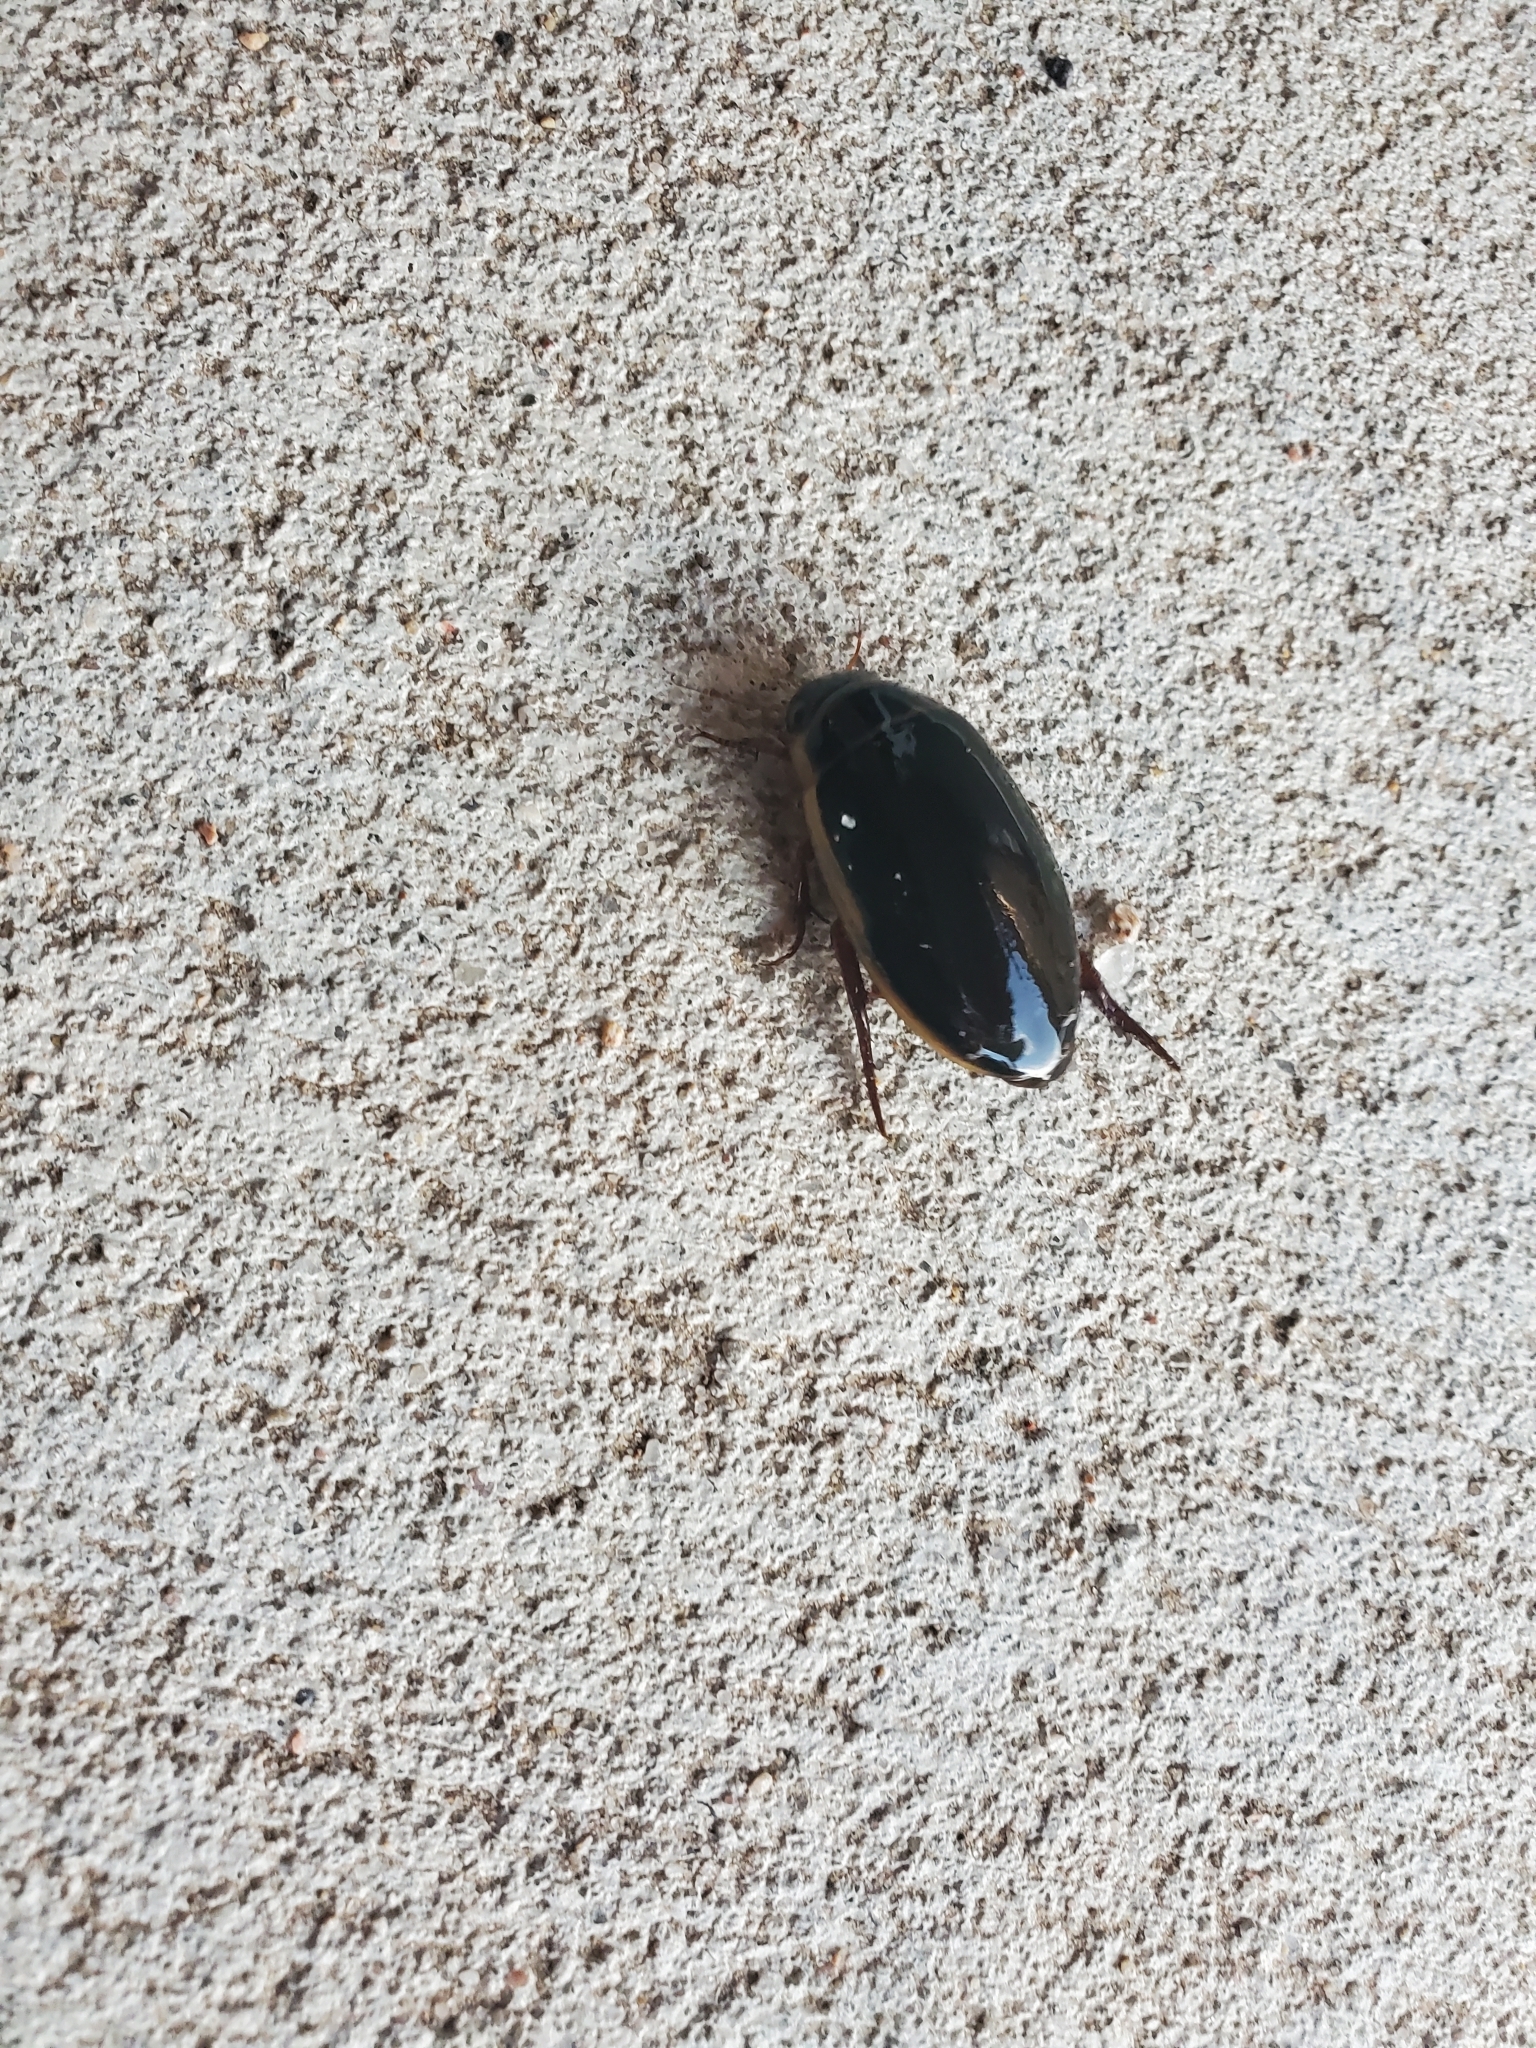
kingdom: Animalia
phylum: Arthropoda
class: Insecta
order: Coleoptera
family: Dytiscidae
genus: Dytiscus
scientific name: Dytiscus
